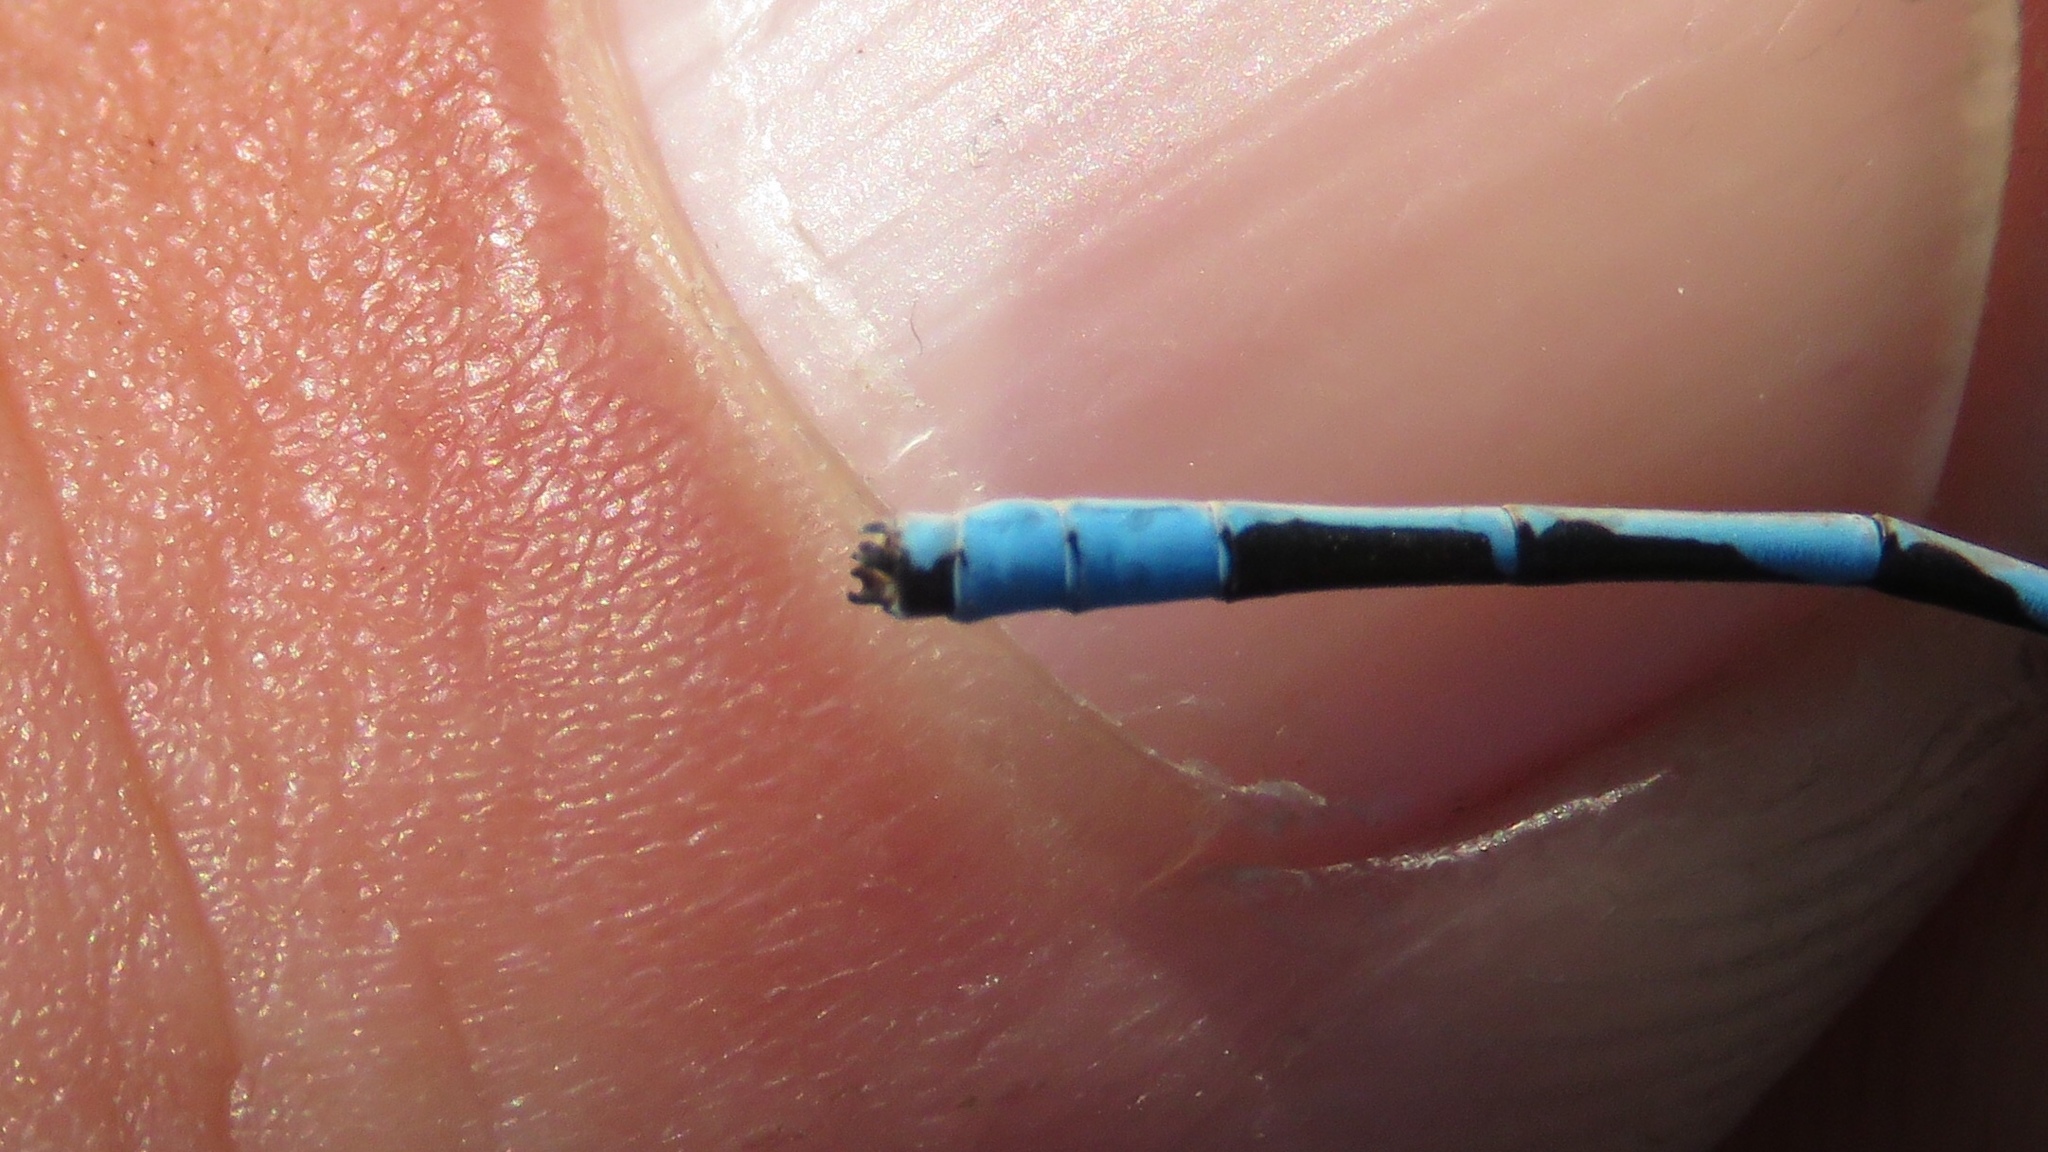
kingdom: Animalia
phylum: Arthropoda
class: Insecta
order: Odonata
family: Coenagrionidae
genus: Enallagma
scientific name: Enallagma ebrium
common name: Marsh bluet
